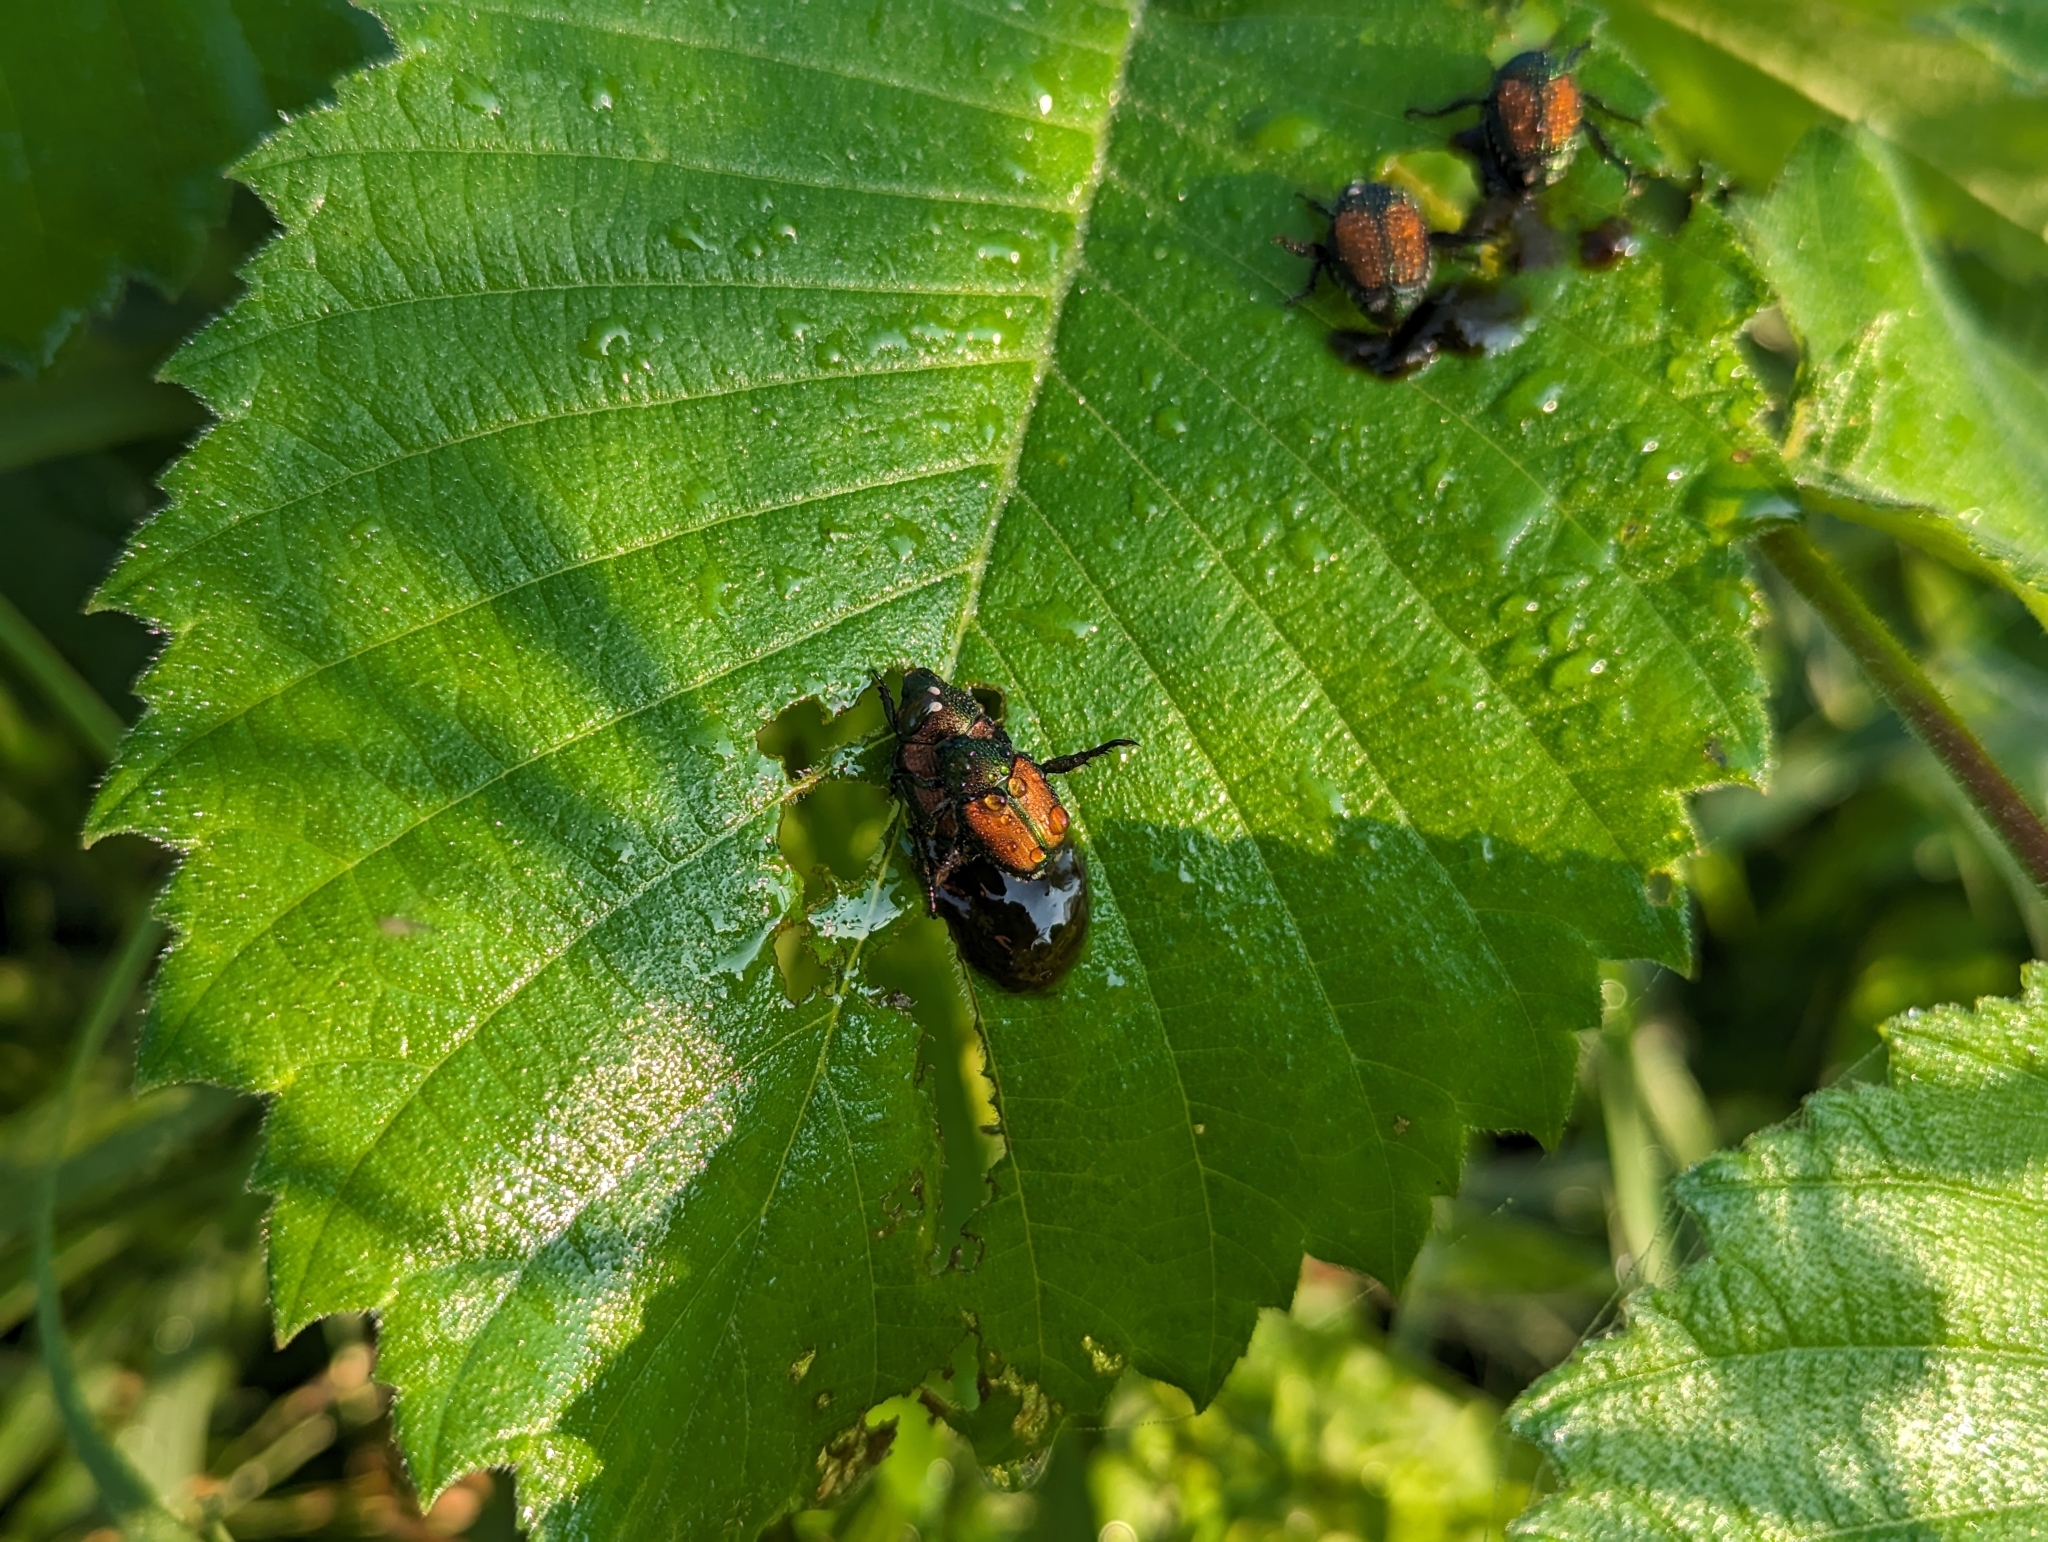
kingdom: Animalia
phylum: Arthropoda
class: Insecta
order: Diptera
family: Tachinidae
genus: Istocheta
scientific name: Istocheta aldrichi
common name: Parasitic wasp
